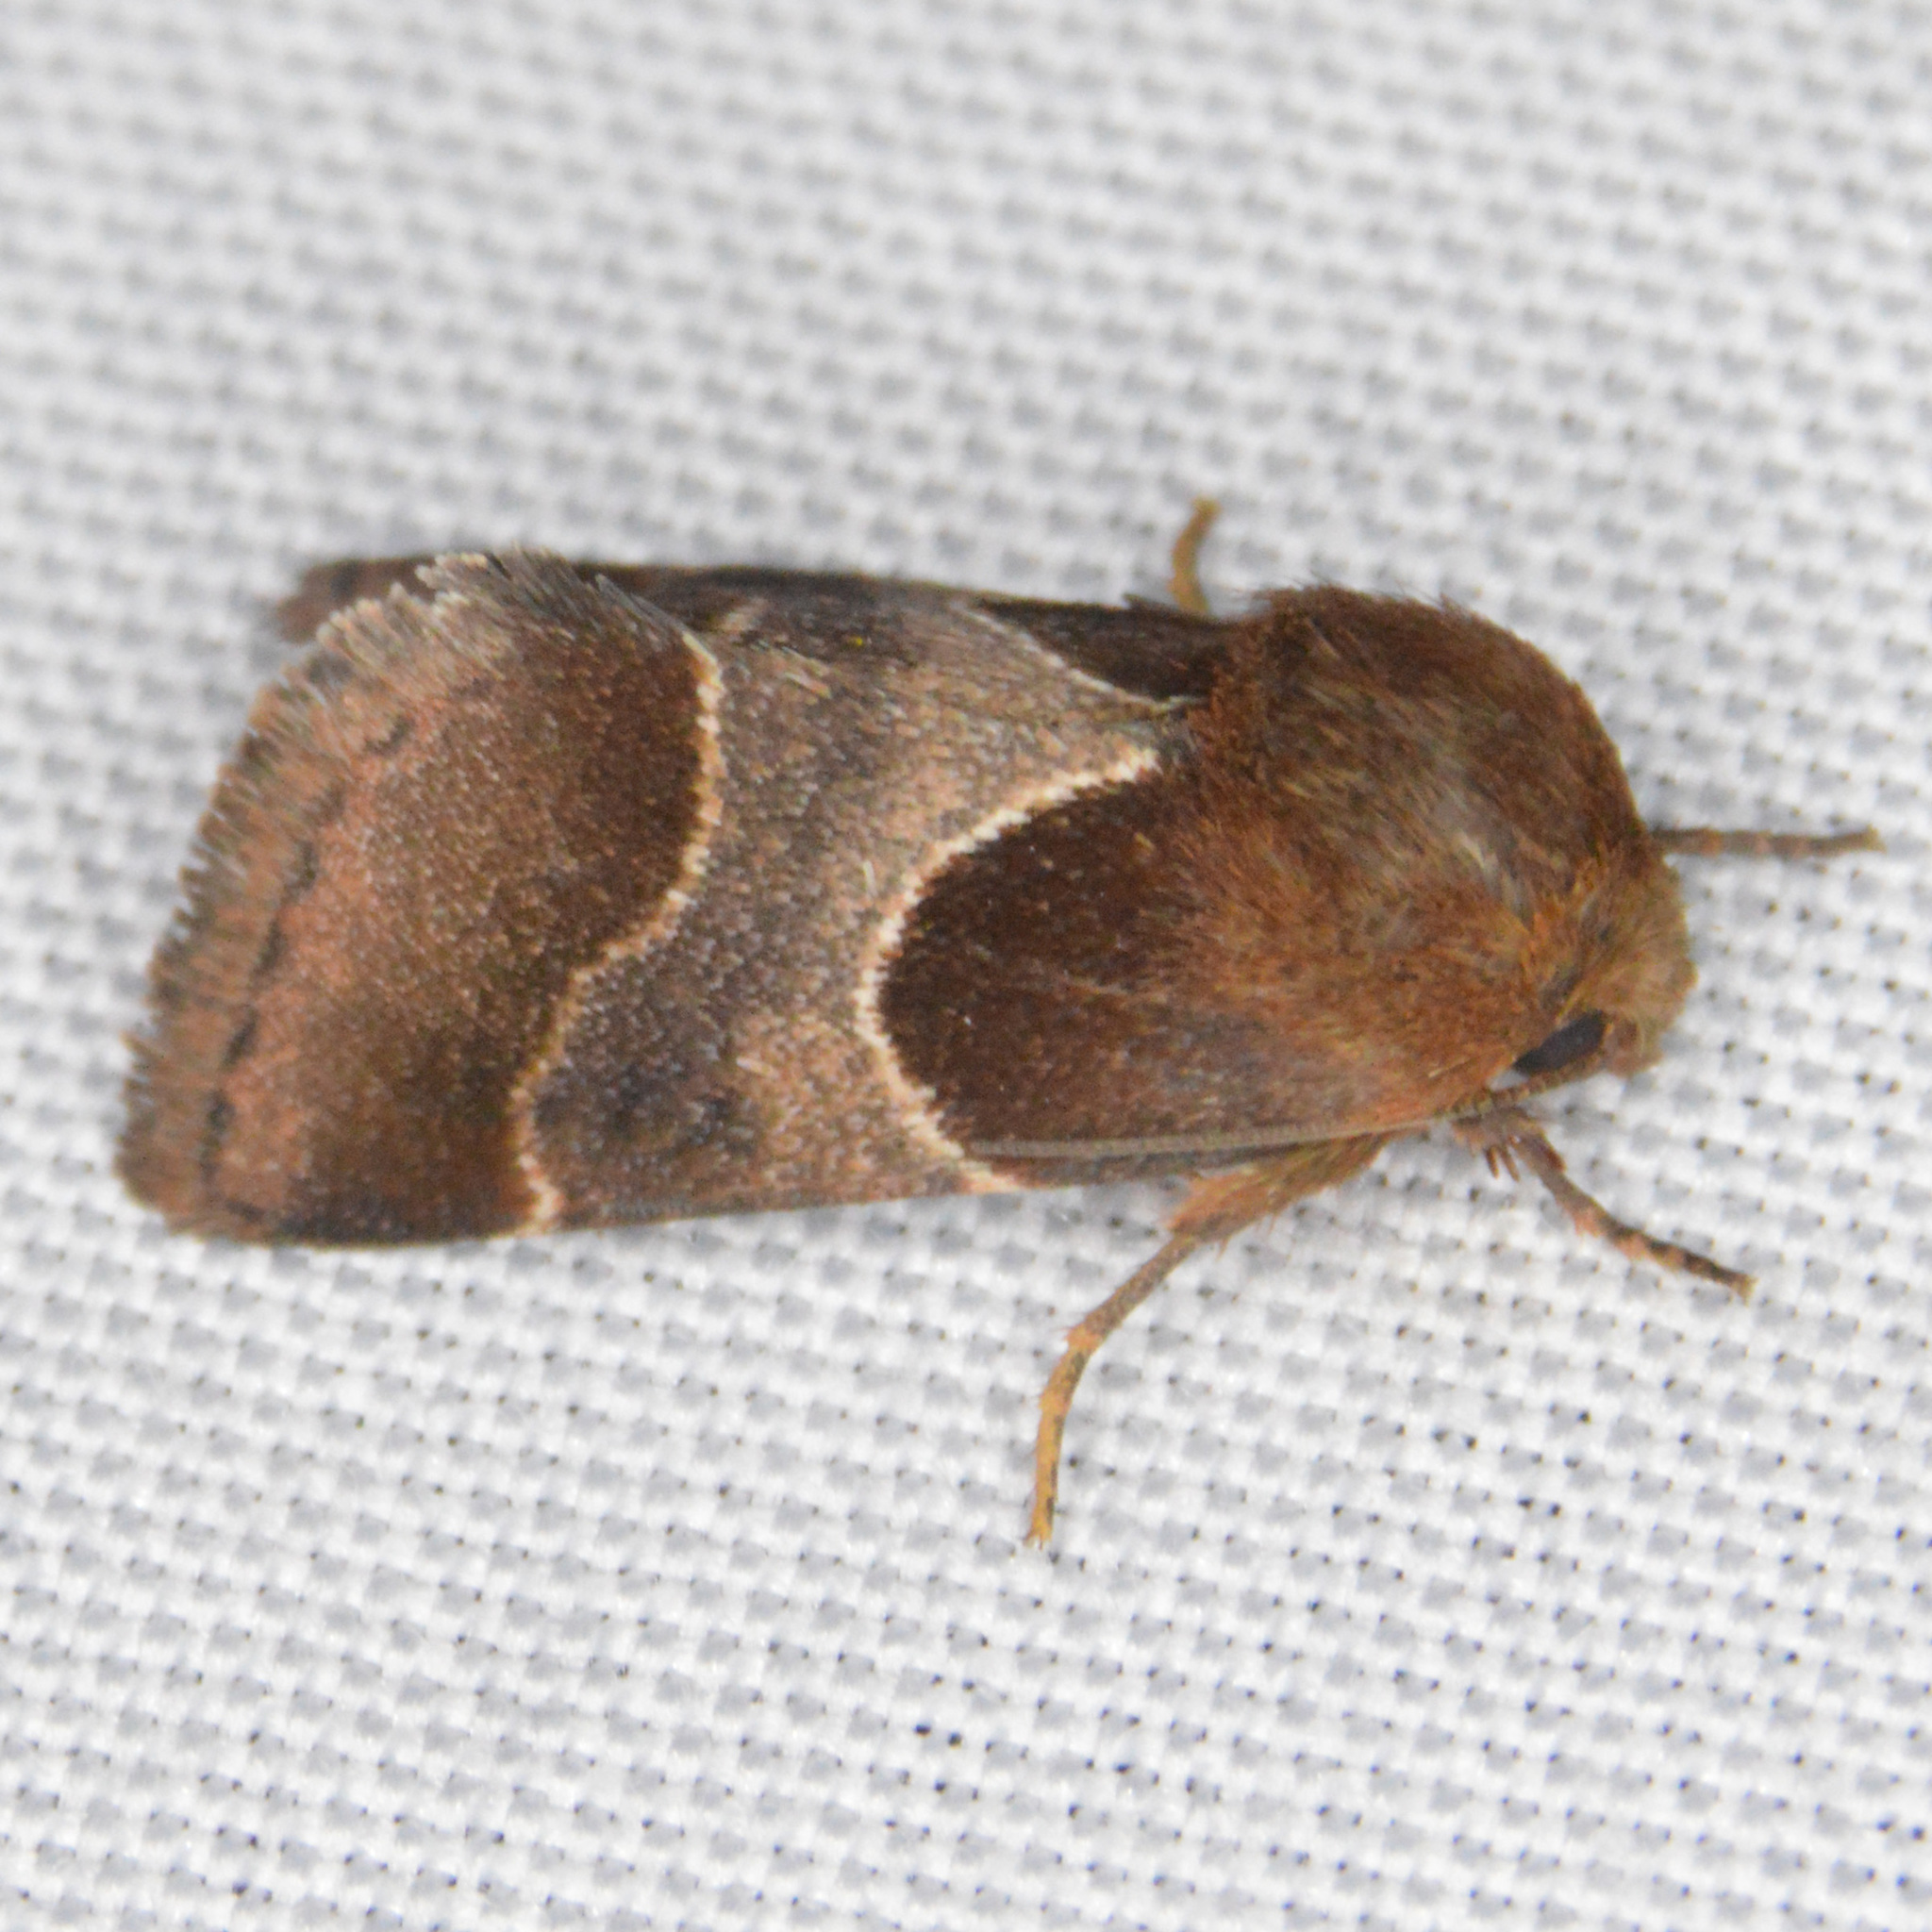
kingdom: Animalia
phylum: Arthropoda
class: Insecta
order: Lepidoptera
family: Noctuidae
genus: Schinia
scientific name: Schinia arcigera
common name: Arcigera flower moth
